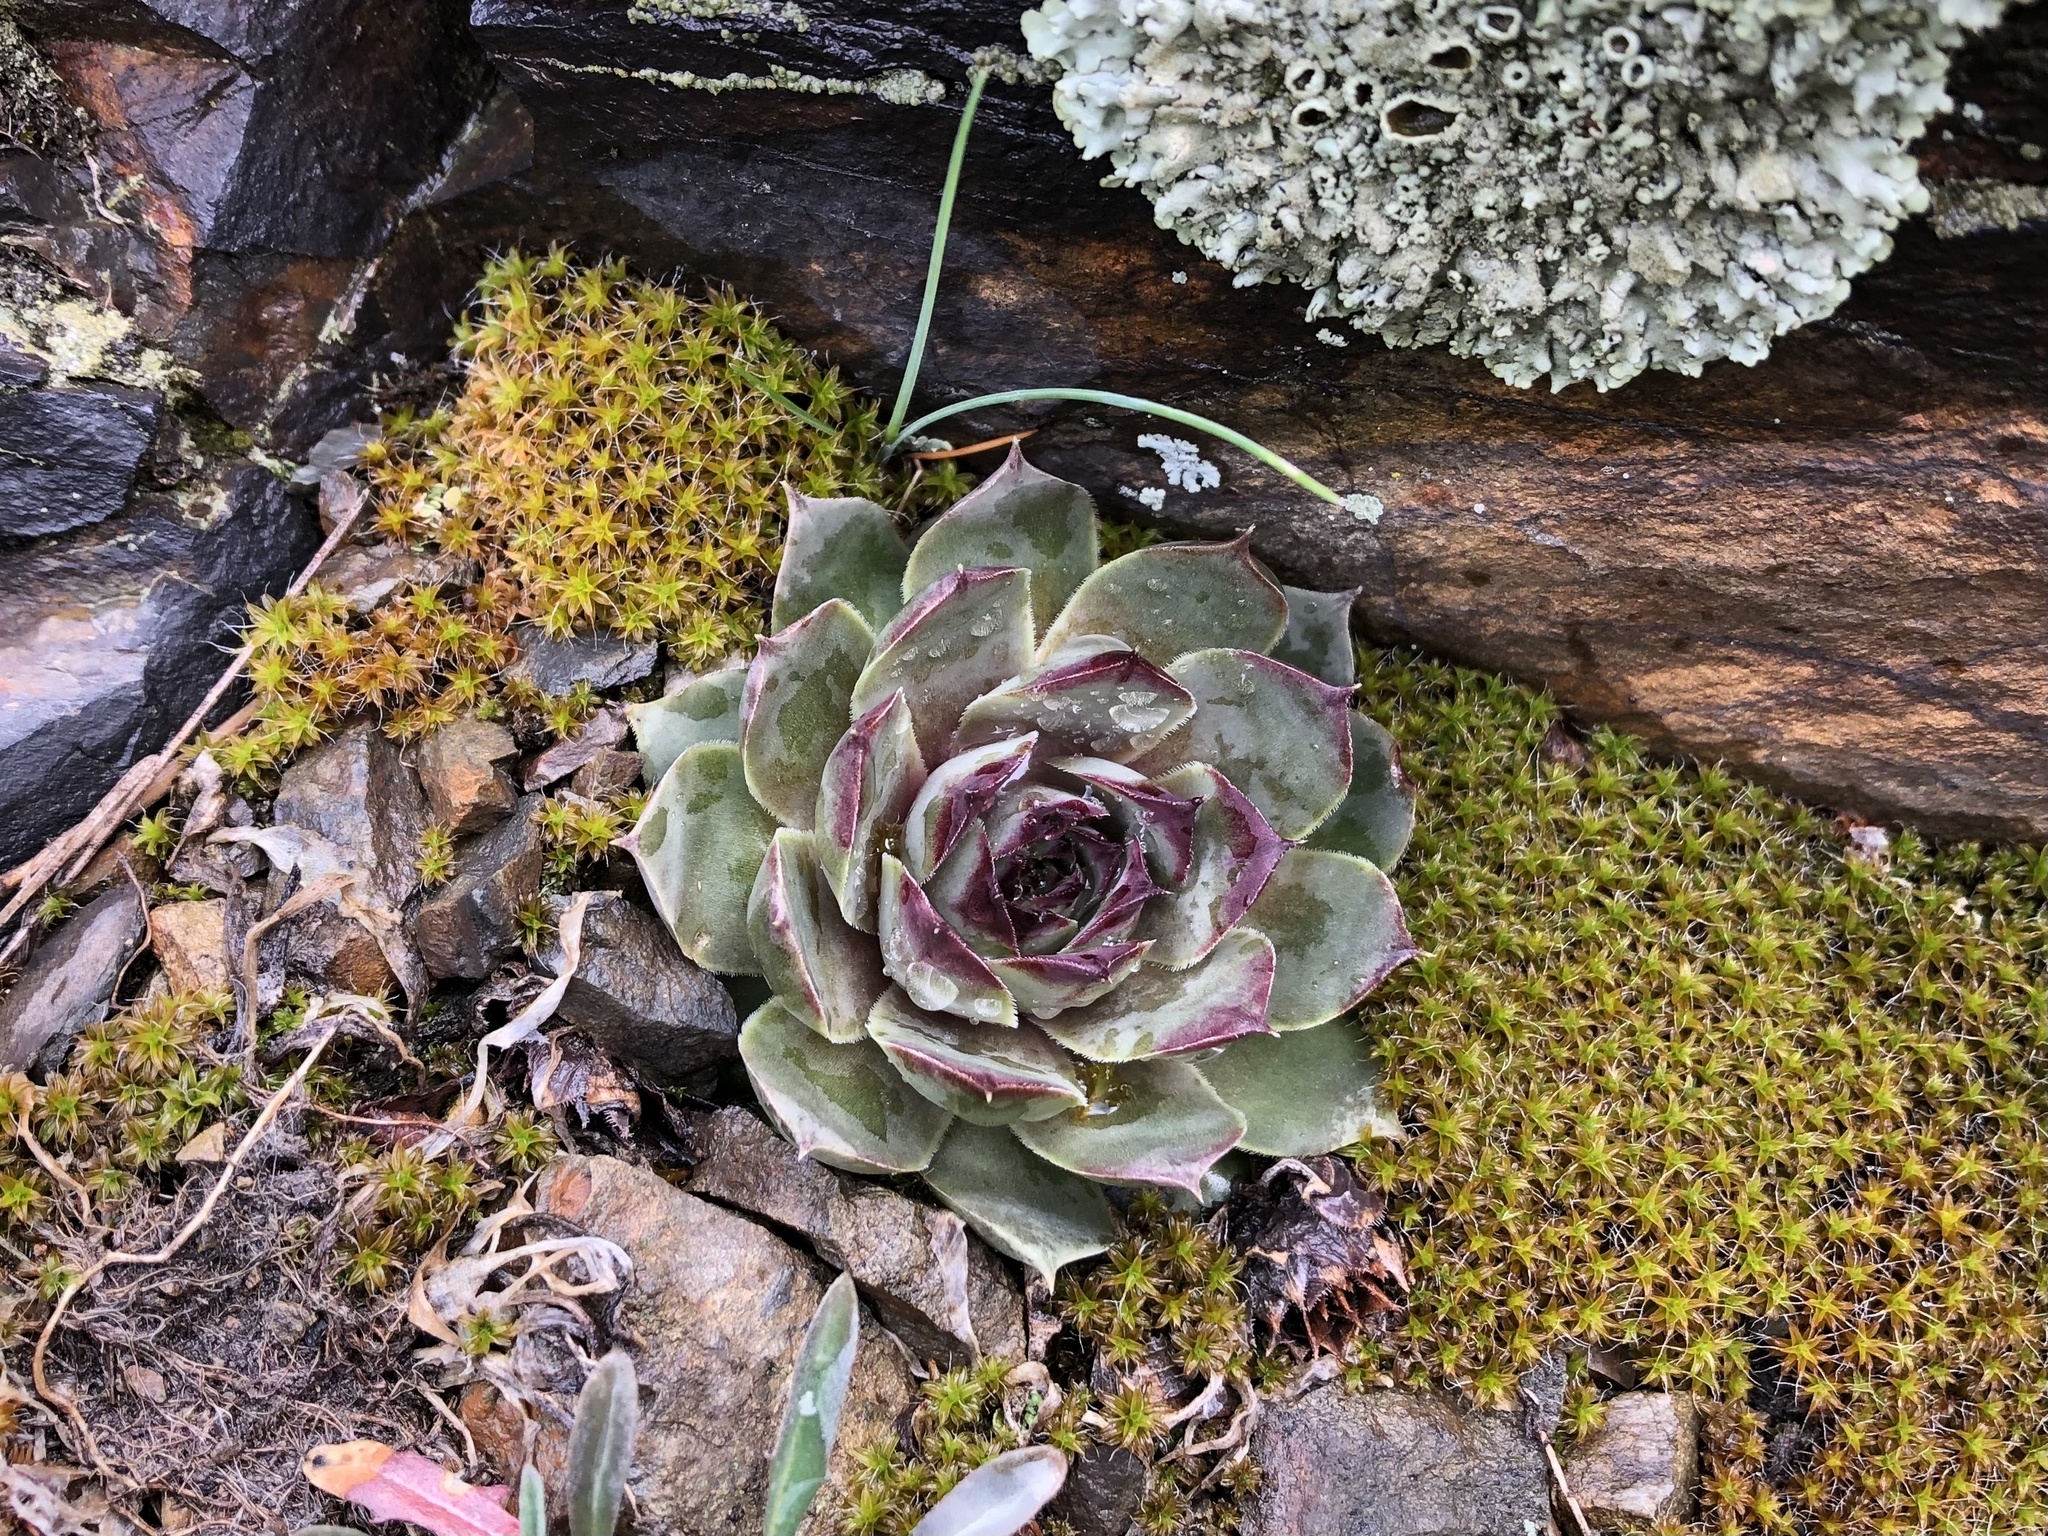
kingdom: Plantae
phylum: Tracheophyta
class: Magnoliopsida
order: Saxifragales
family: Crassulaceae
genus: Sempervivum
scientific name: Sempervivum tectorum
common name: House-leek
